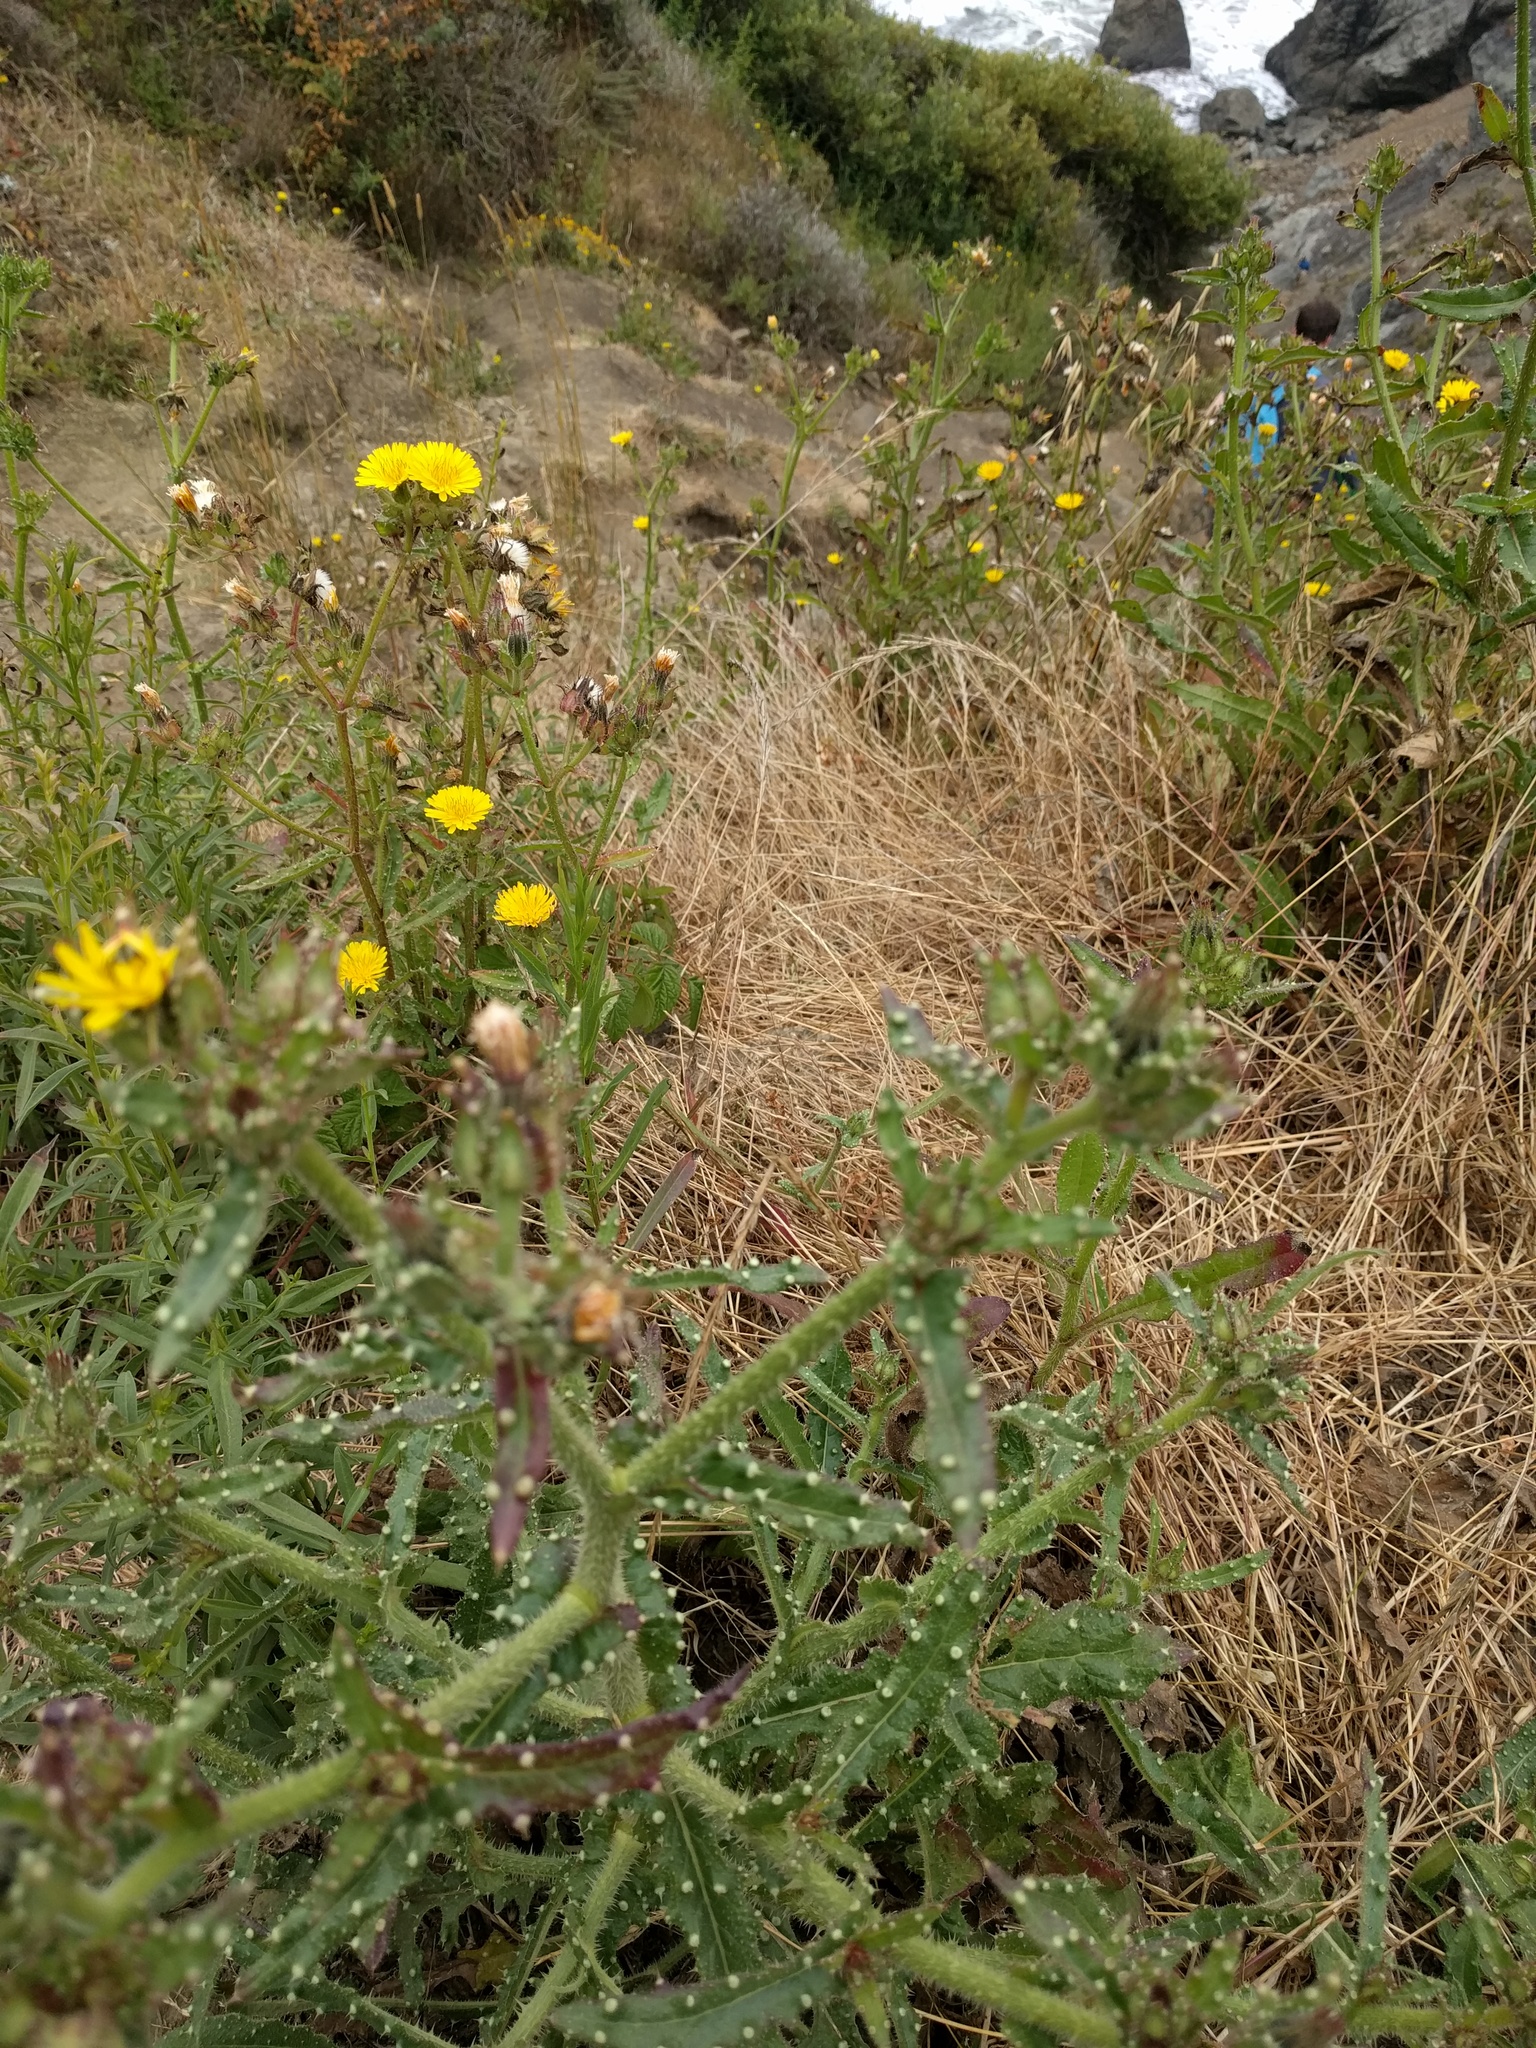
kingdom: Plantae
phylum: Tracheophyta
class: Magnoliopsida
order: Asterales
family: Asteraceae
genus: Helminthotheca
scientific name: Helminthotheca echioides
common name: Ox-tongue
